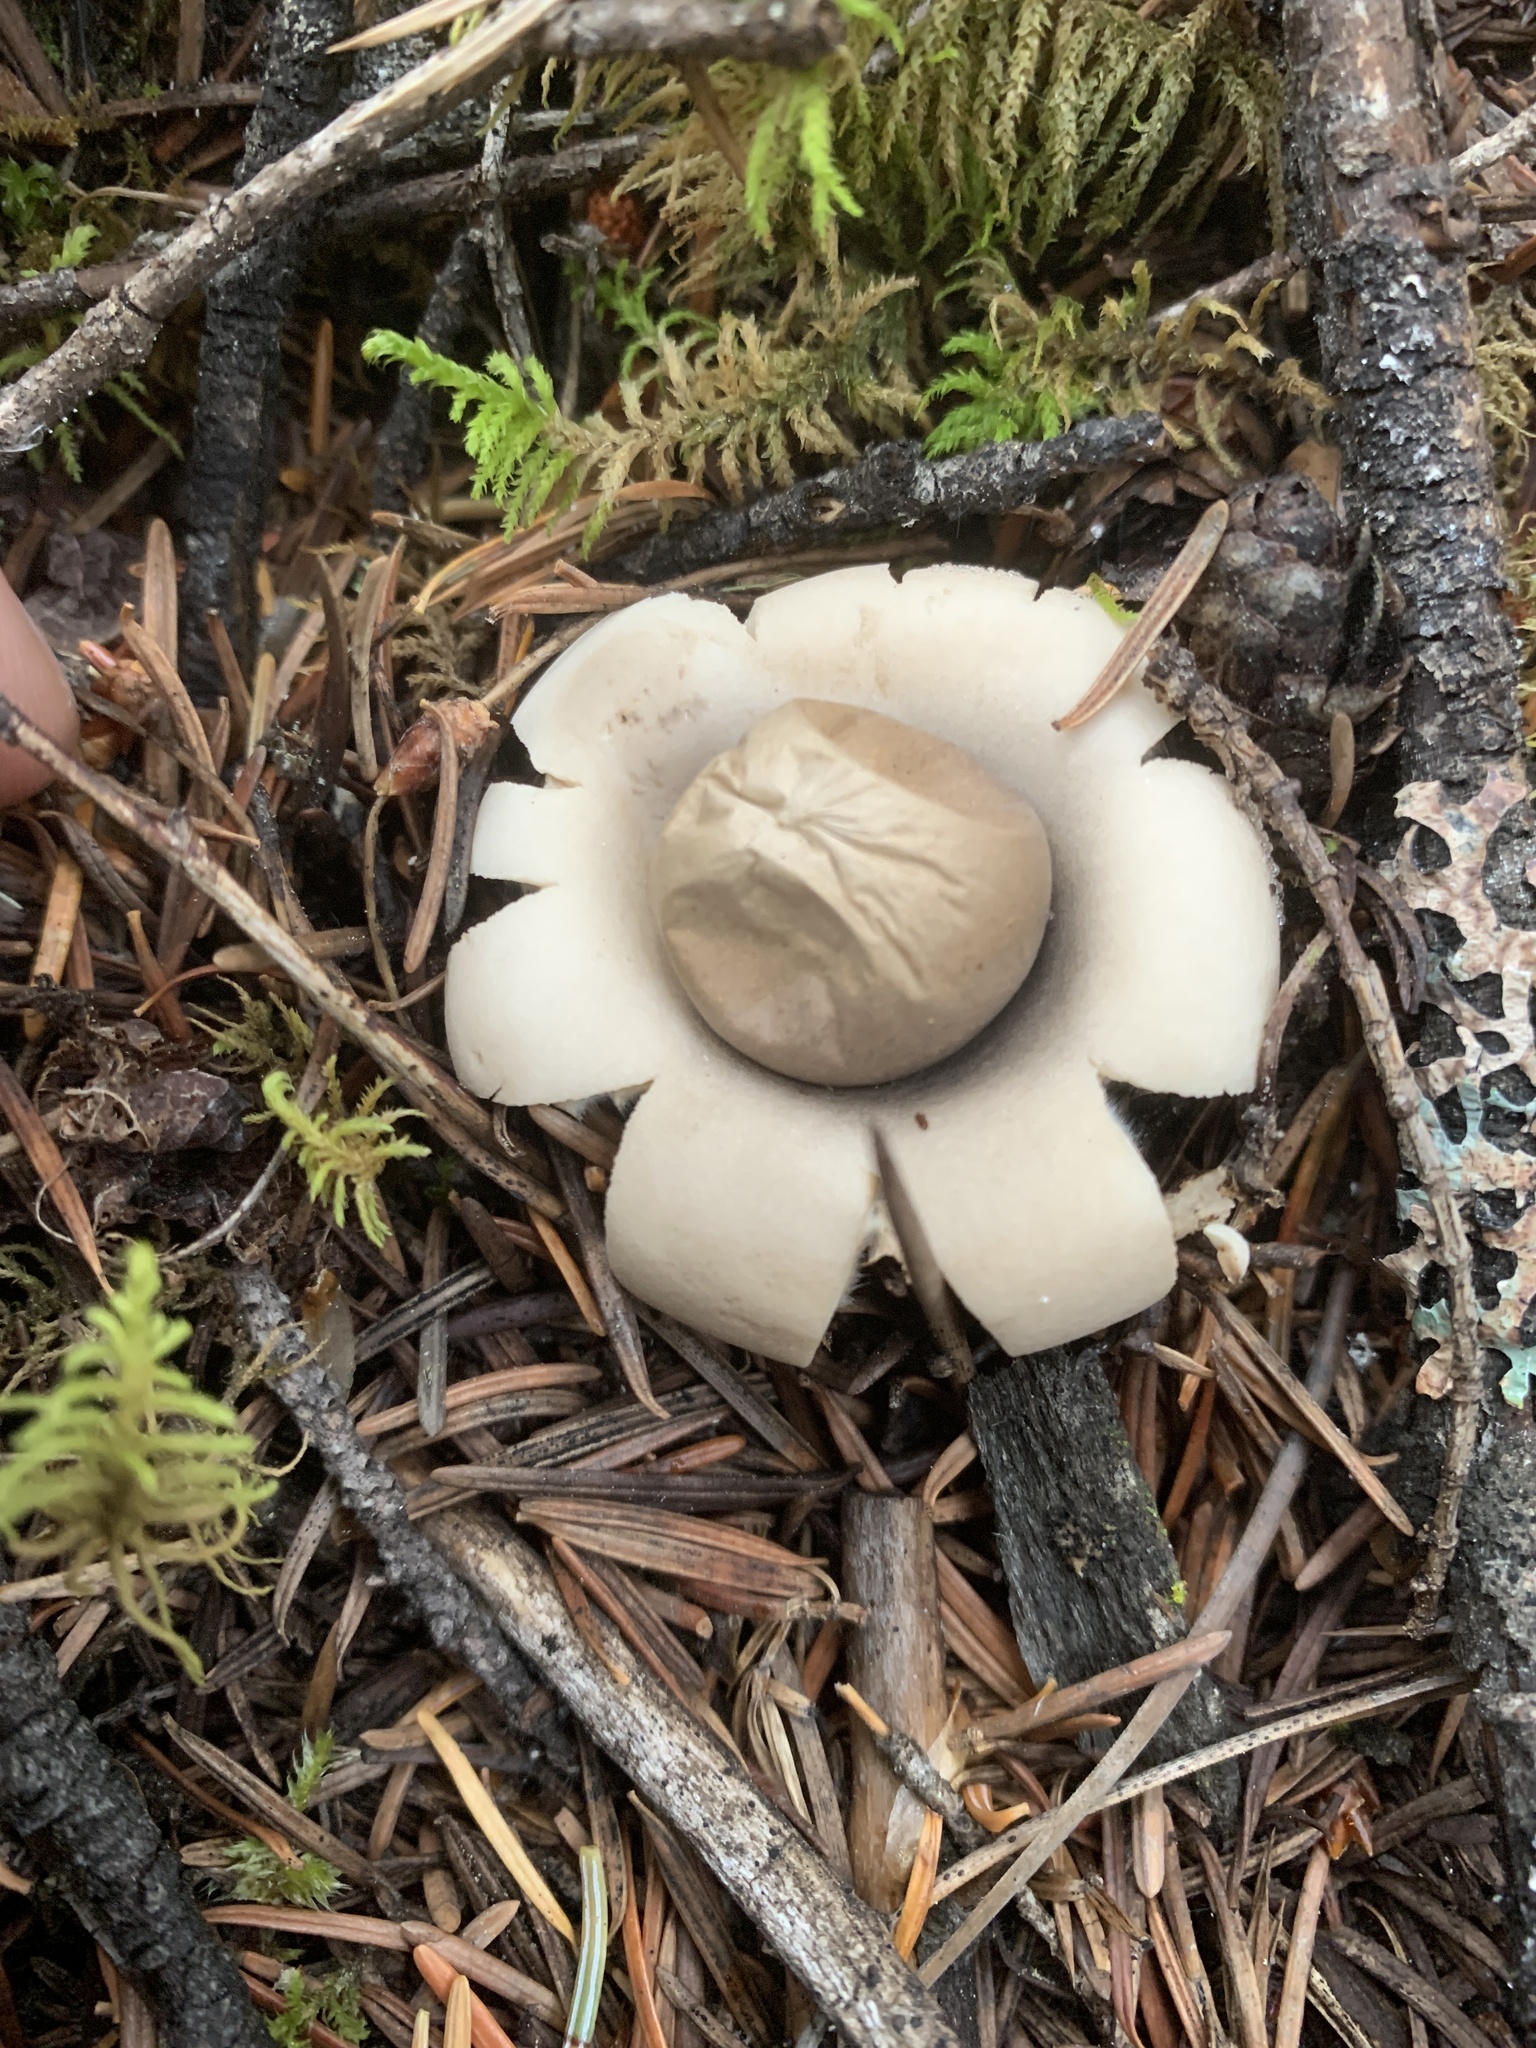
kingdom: Fungi
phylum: Basidiomycota
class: Agaricomycetes
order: Geastrales
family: Geastraceae
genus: Geastrum
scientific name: Geastrum saccatum
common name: Rounded earthstar
